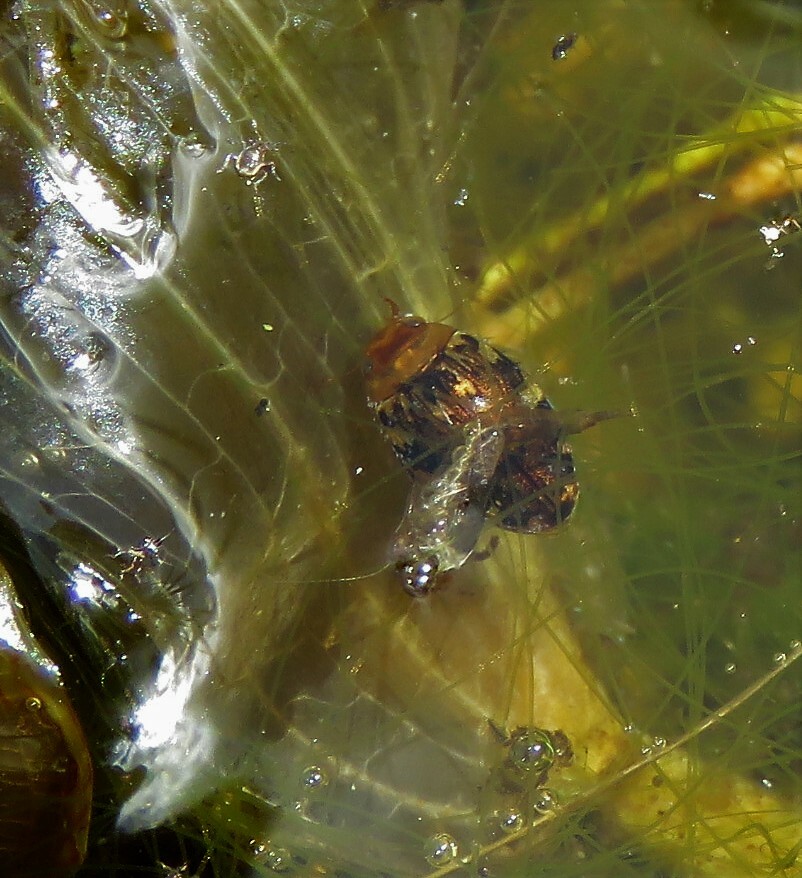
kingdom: Animalia
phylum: Arthropoda
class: Insecta
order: Coleoptera
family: Dytiscidae
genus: Laccophilus
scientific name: Laccophilus maculosus
